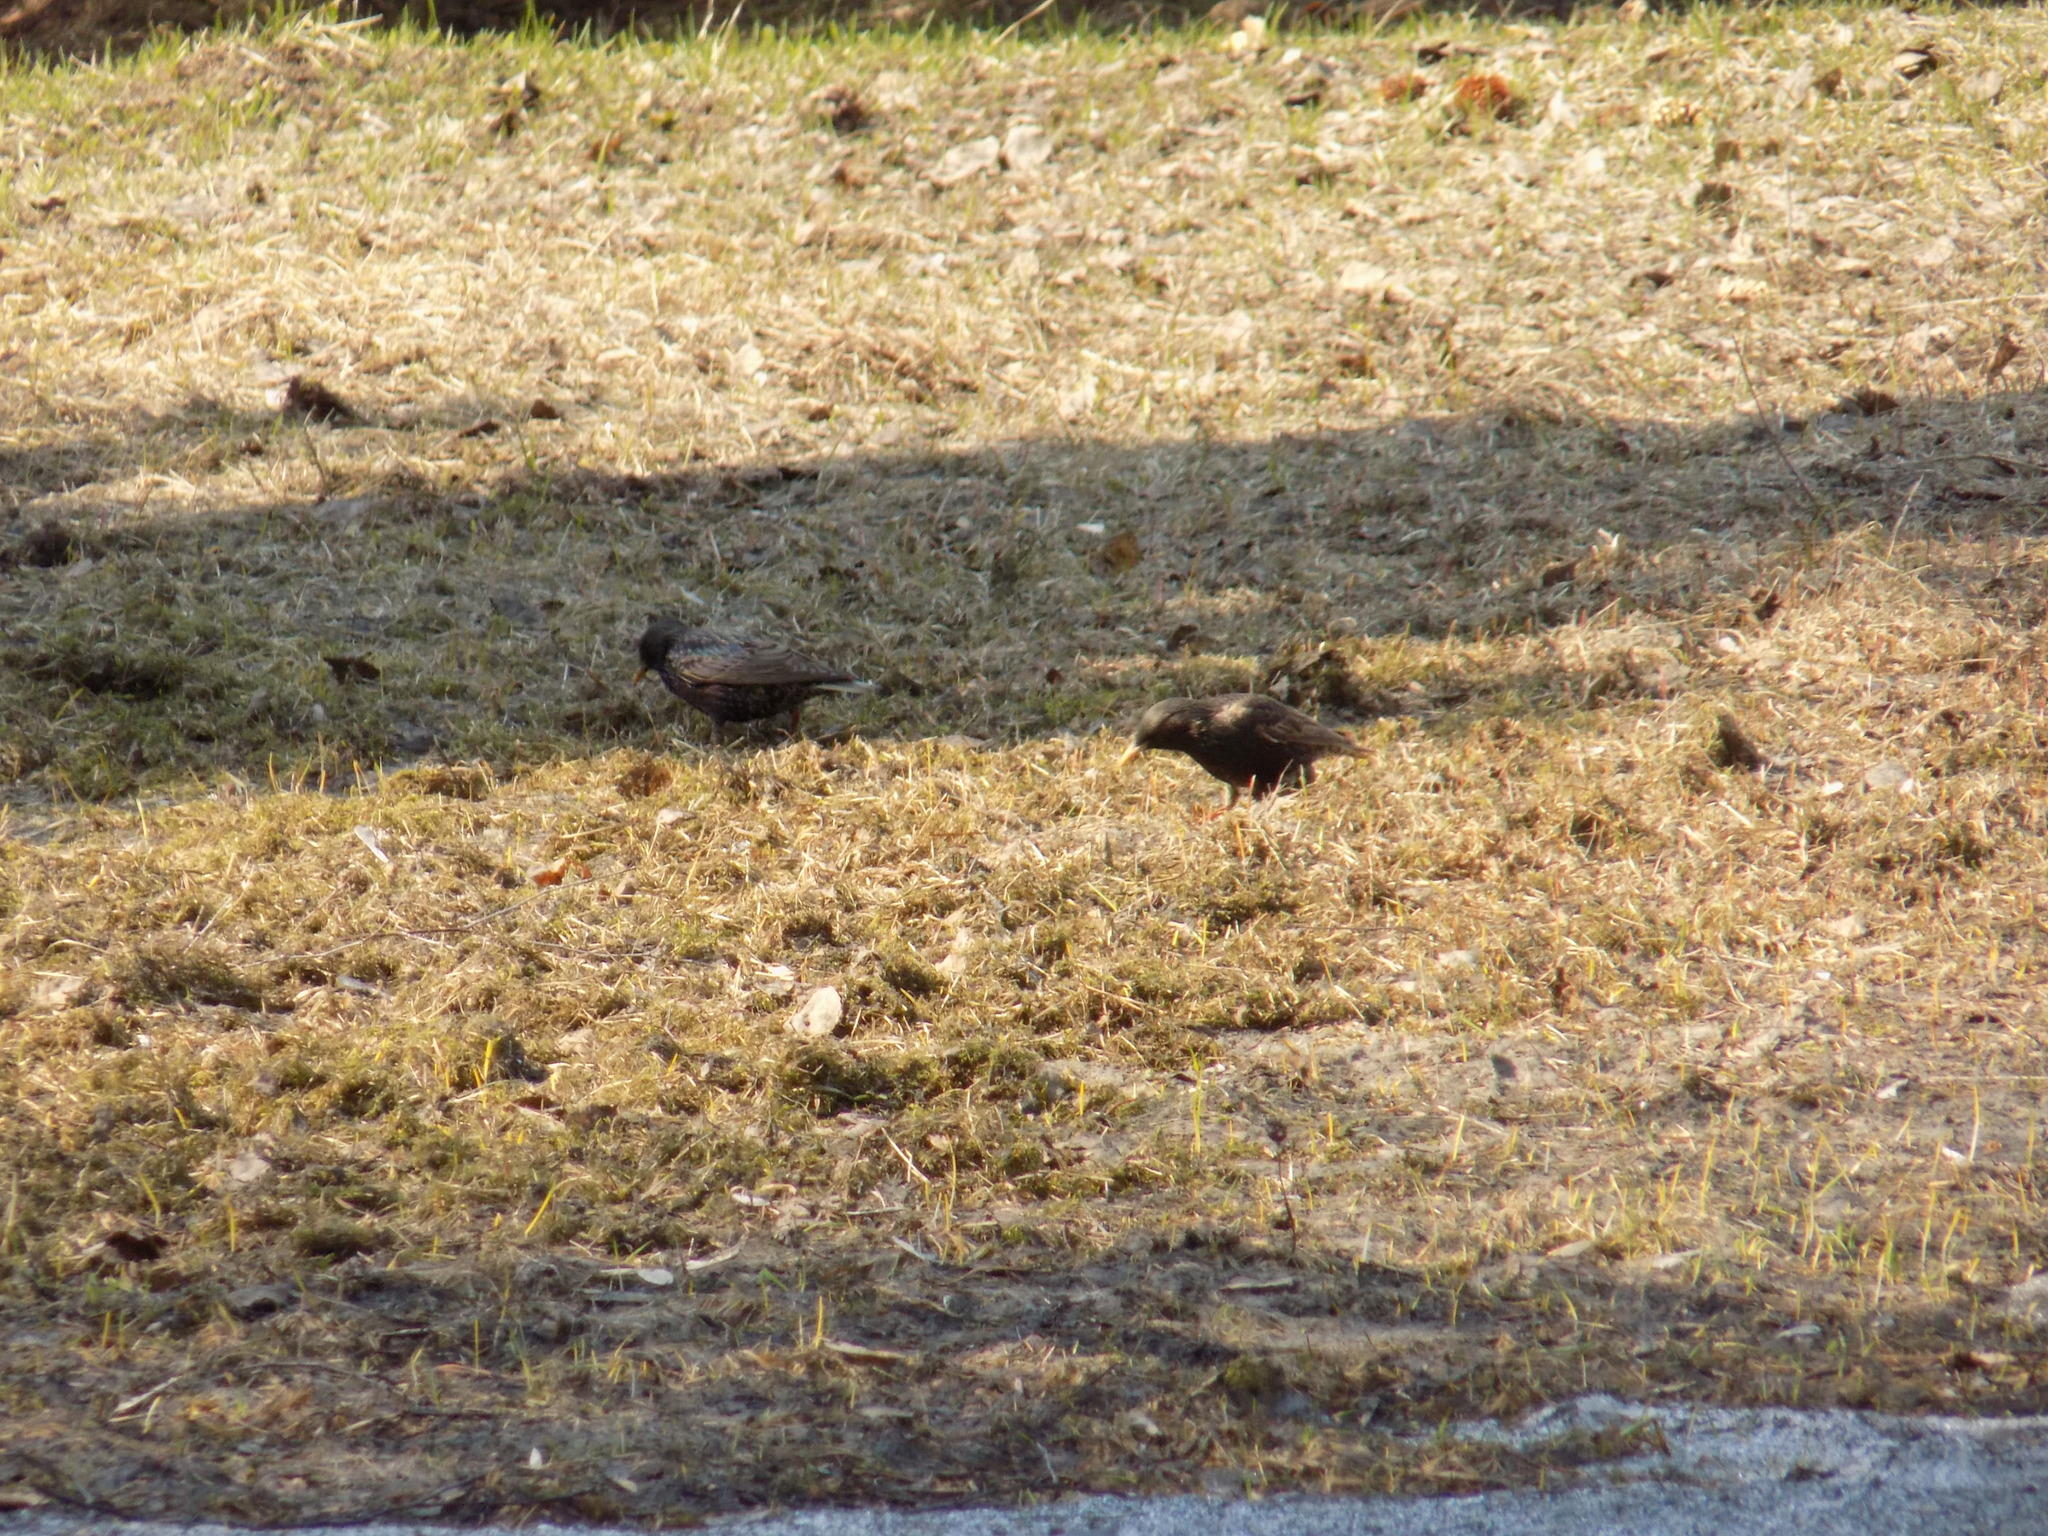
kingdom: Animalia
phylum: Chordata
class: Aves
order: Passeriformes
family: Sturnidae
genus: Sturnus
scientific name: Sturnus vulgaris
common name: Common starling
